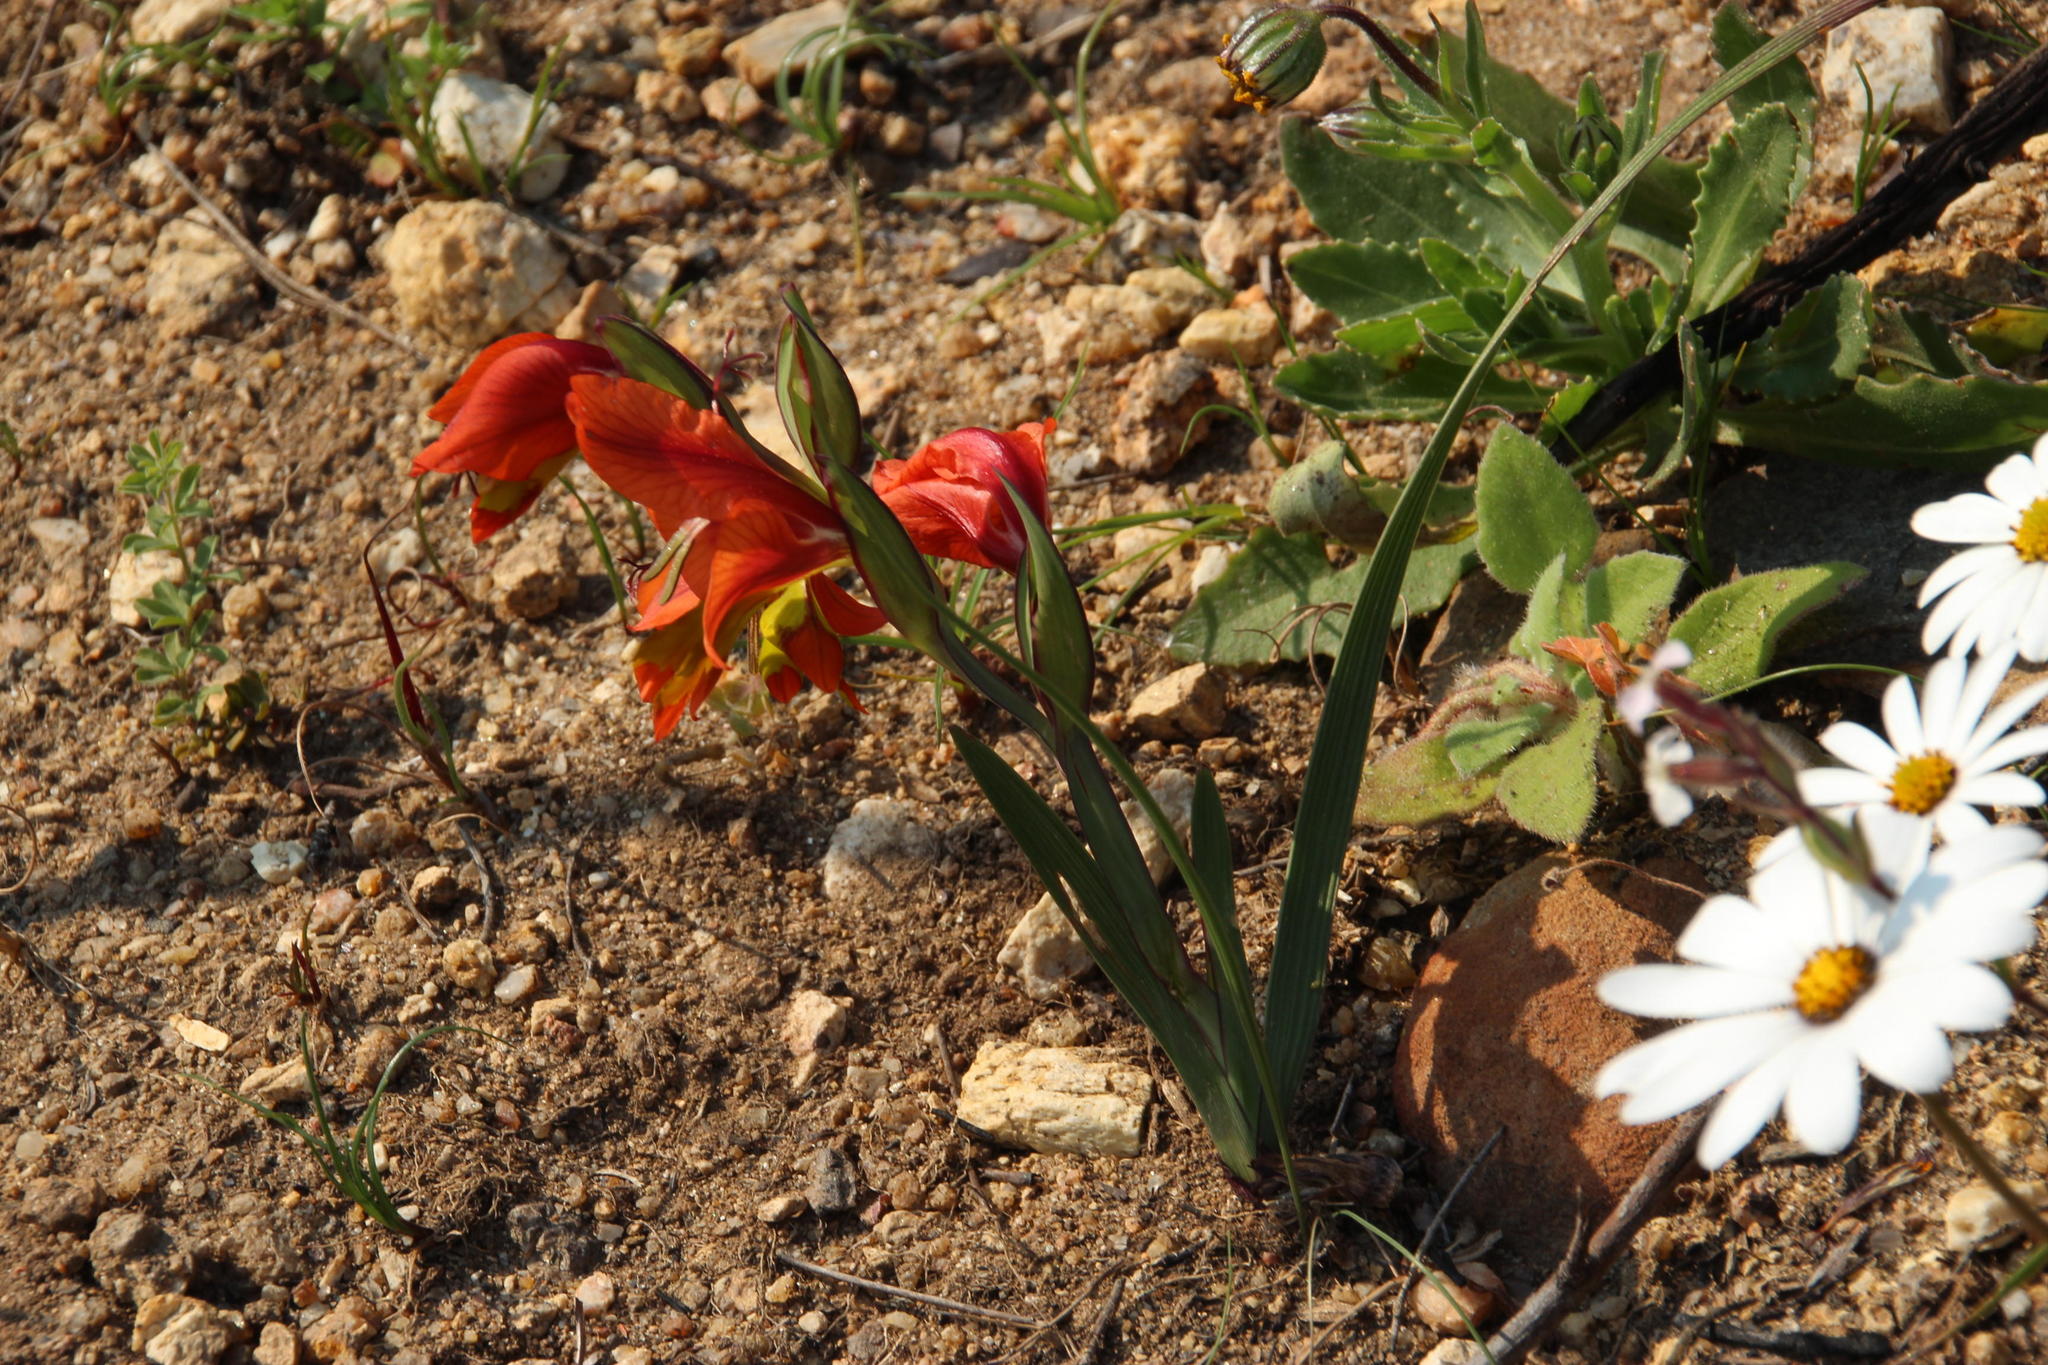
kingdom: Plantae
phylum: Tracheophyta
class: Liliopsida
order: Asparagales
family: Iridaceae
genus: Gladiolus
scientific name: Gladiolus alatus
